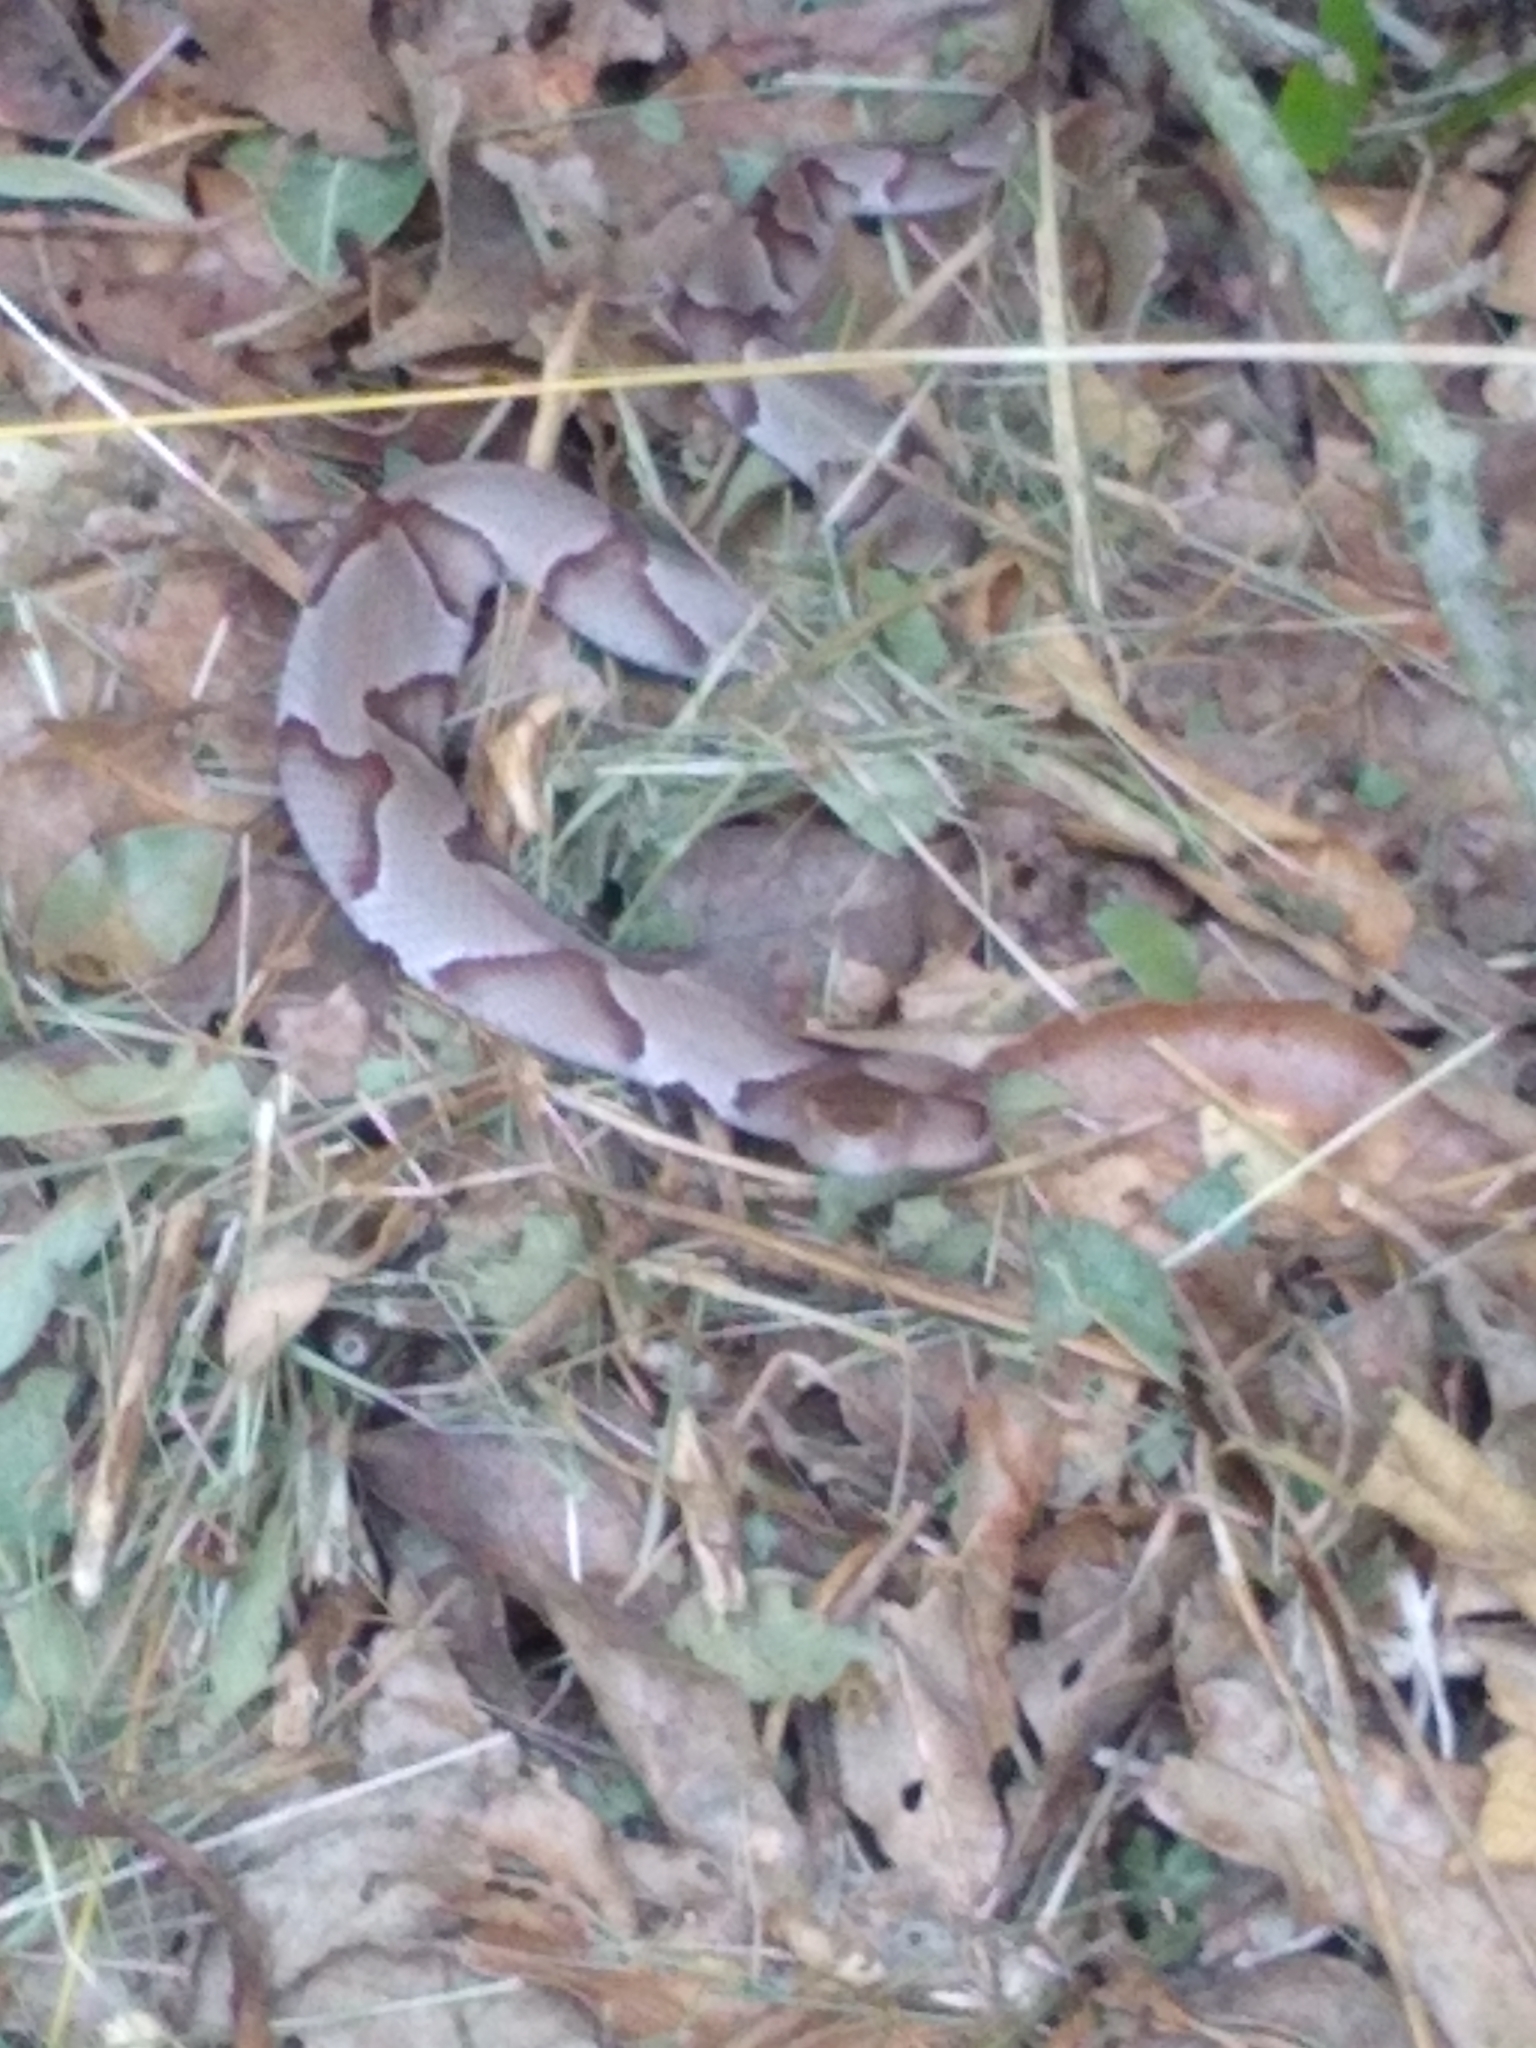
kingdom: Animalia
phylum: Chordata
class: Squamata
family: Viperidae
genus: Agkistrodon
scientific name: Agkistrodon contortrix
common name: Northern copperhead
